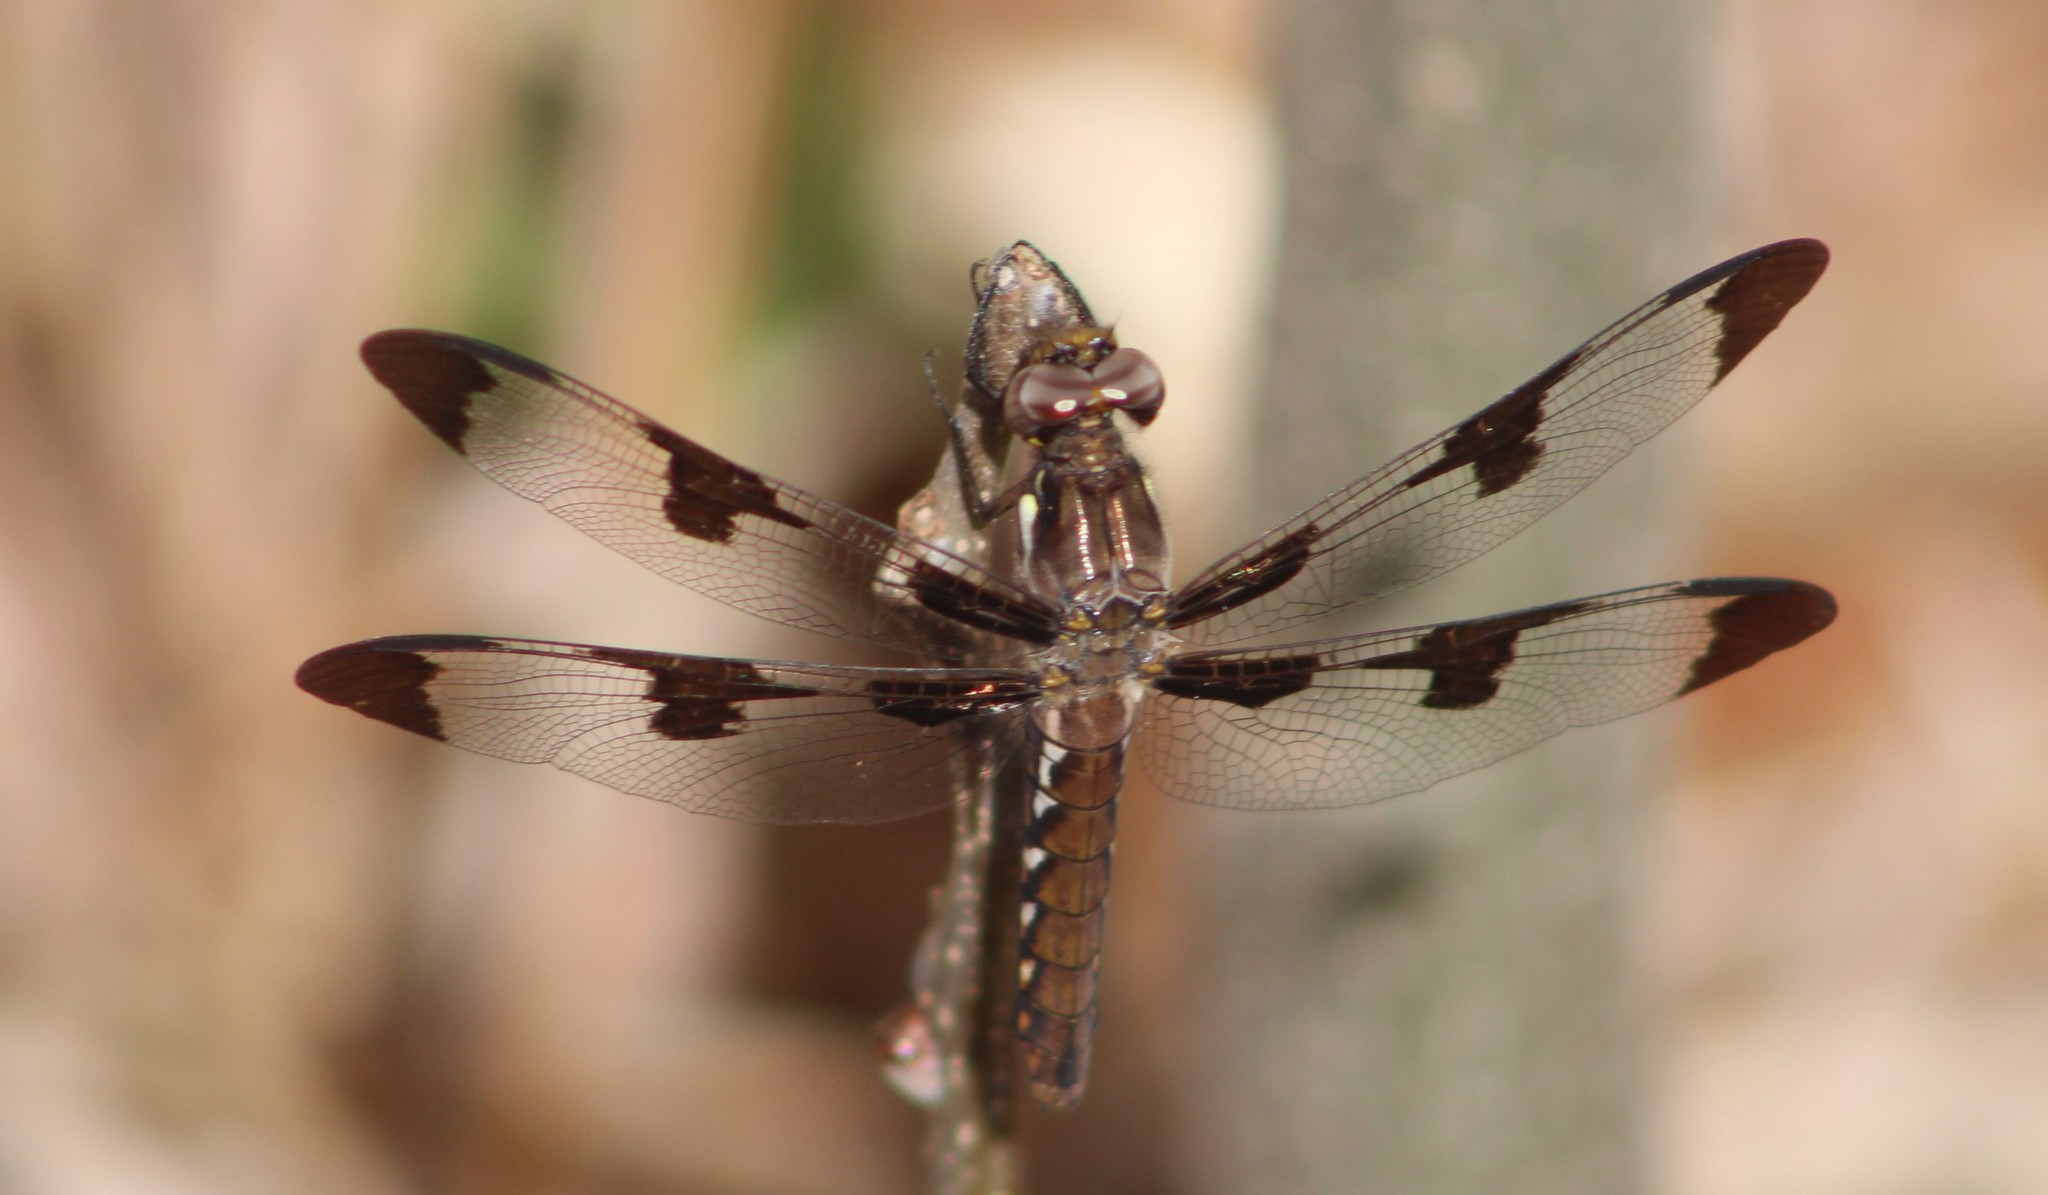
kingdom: Animalia
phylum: Arthropoda
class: Insecta
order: Odonata
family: Libellulidae
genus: Plathemis
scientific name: Plathemis lydia
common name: Common whitetail
